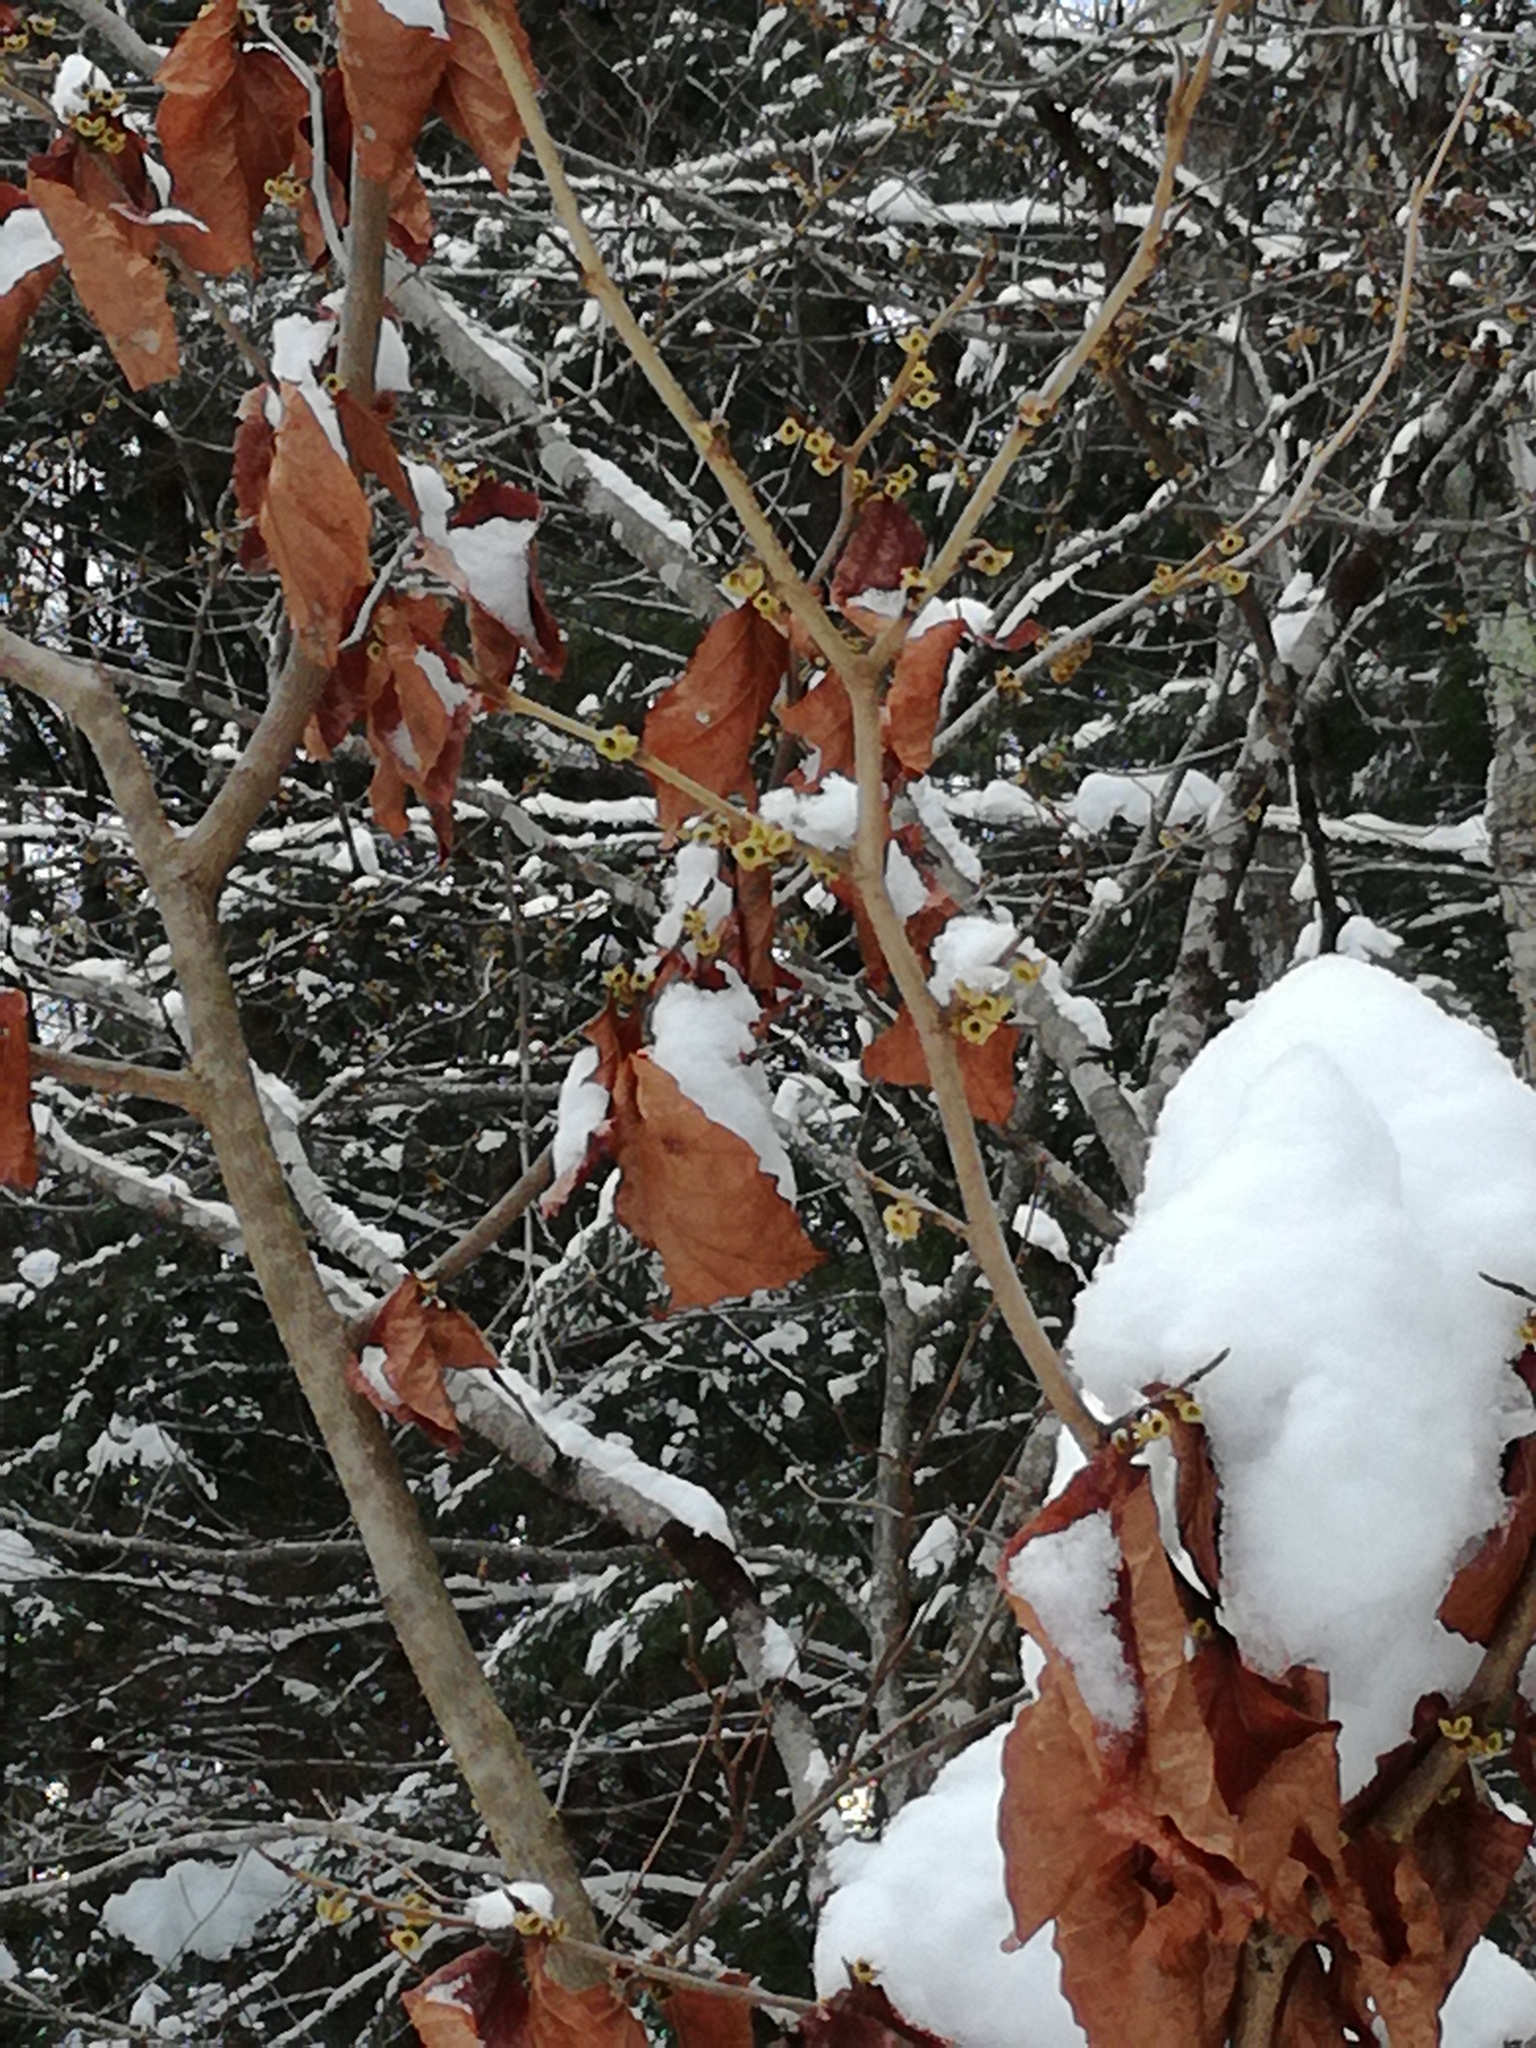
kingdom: Plantae
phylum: Tracheophyta
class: Magnoliopsida
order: Fagales
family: Fagaceae
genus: Fagus
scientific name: Fagus grandifolia
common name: American beech
